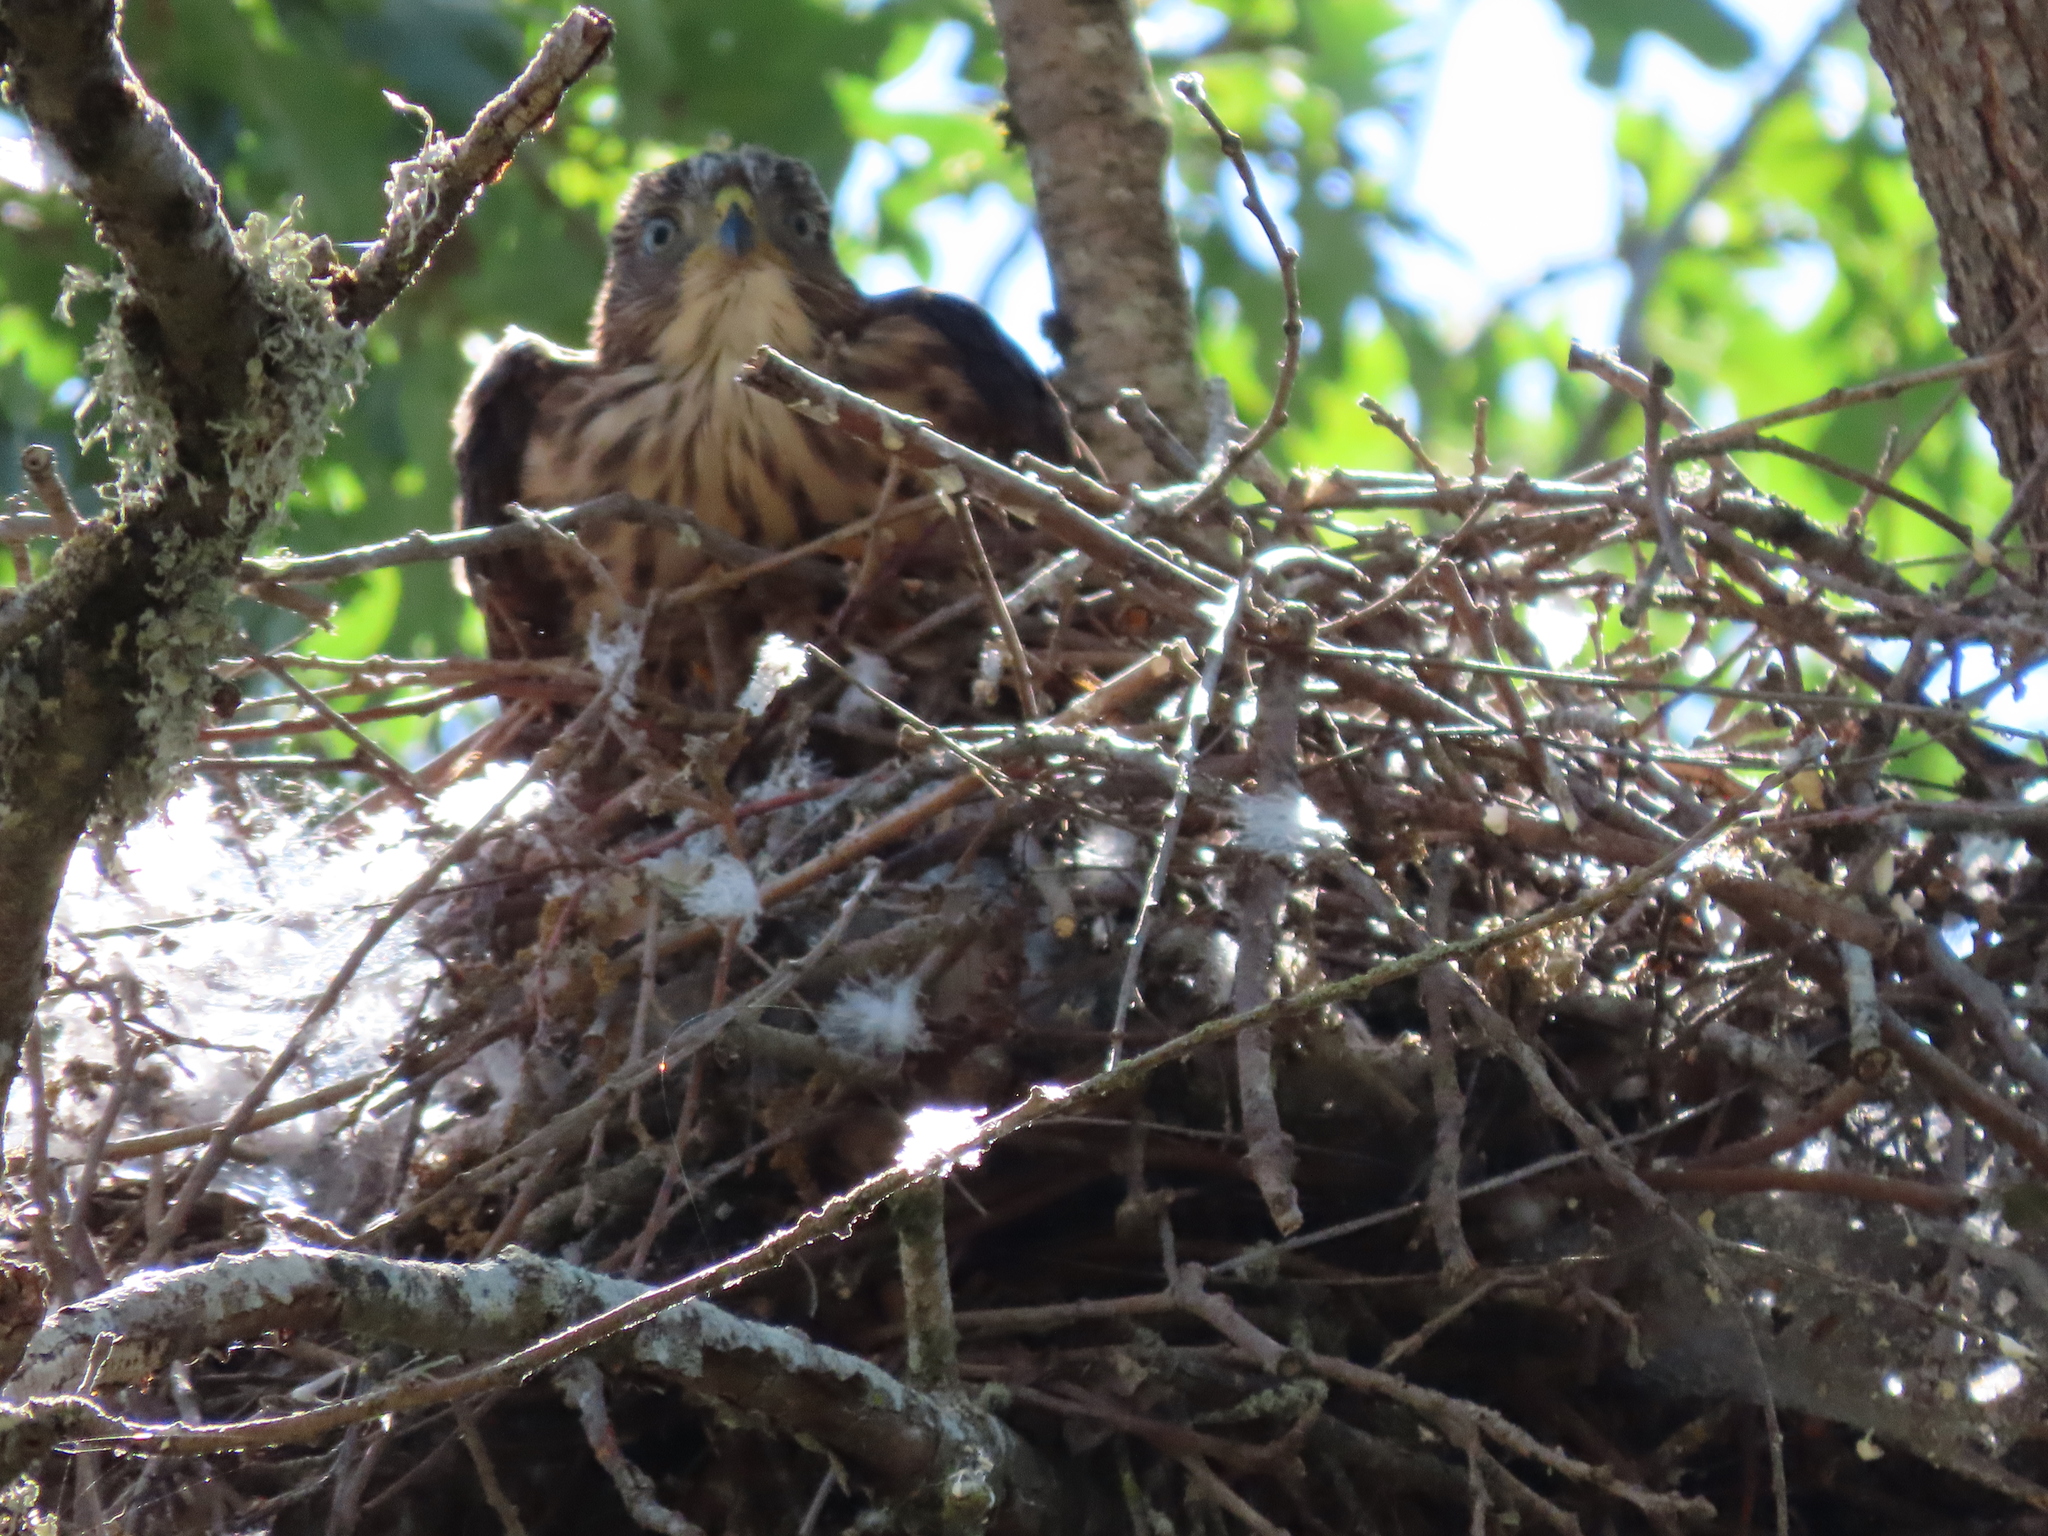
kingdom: Animalia
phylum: Chordata
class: Aves
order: Accipitriformes
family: Accipitridae
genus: Accipiter
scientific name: Accipiter cooperii
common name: Cooper's hawk
